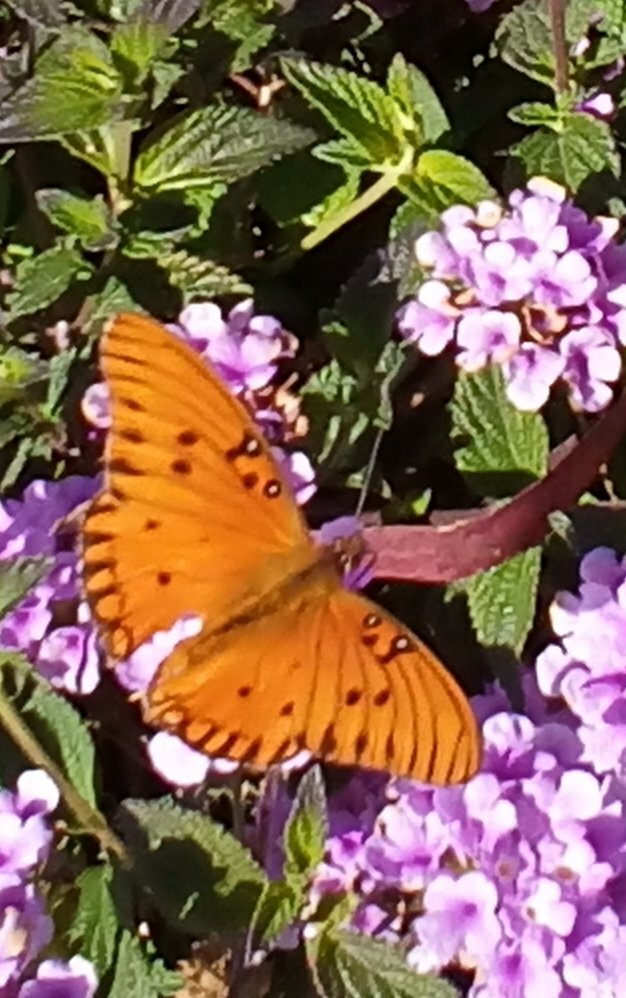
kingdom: Animalia
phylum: Arthropoda
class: Insecta
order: Lepidoptera
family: Nymphalidae
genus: Dione
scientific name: Dione vanillae
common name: Gulf fritillary
